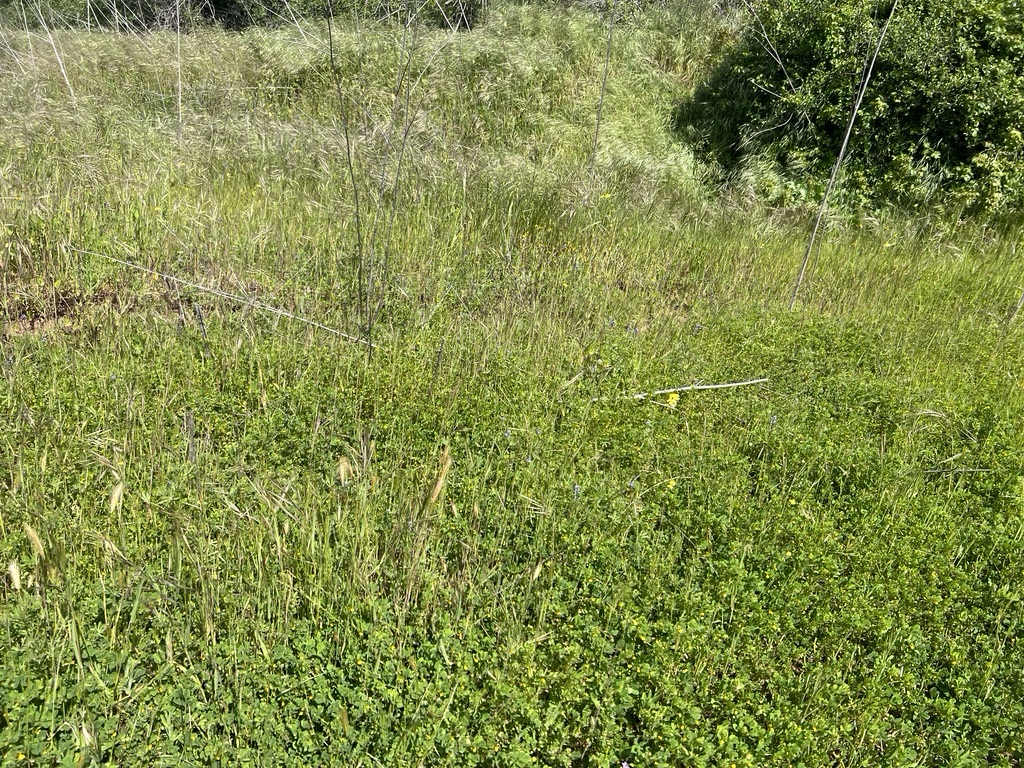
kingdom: Plantae
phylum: Tracheophyta
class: Magnoliopsida
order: Fabales
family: Fabaceae
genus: Lupinus
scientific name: Lupinus bicolor
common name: Miniature lupine
